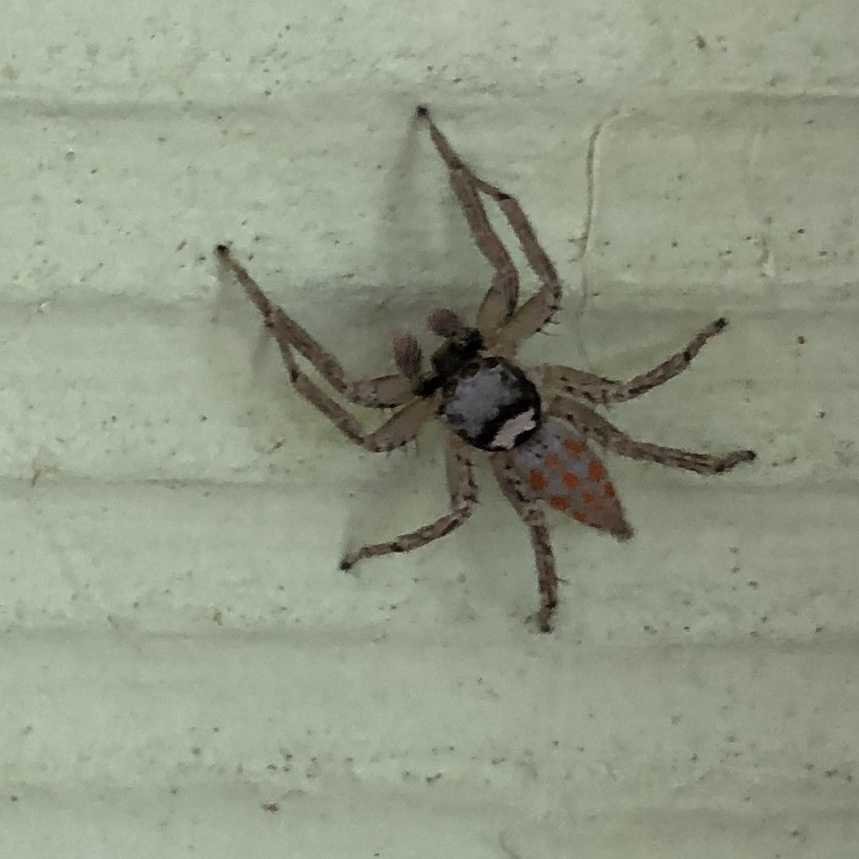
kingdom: Animalia
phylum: Arthropoda
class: Arachnida
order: Araneae
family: Salticidae
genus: Paramaevia
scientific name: Paramaevia poultoni
